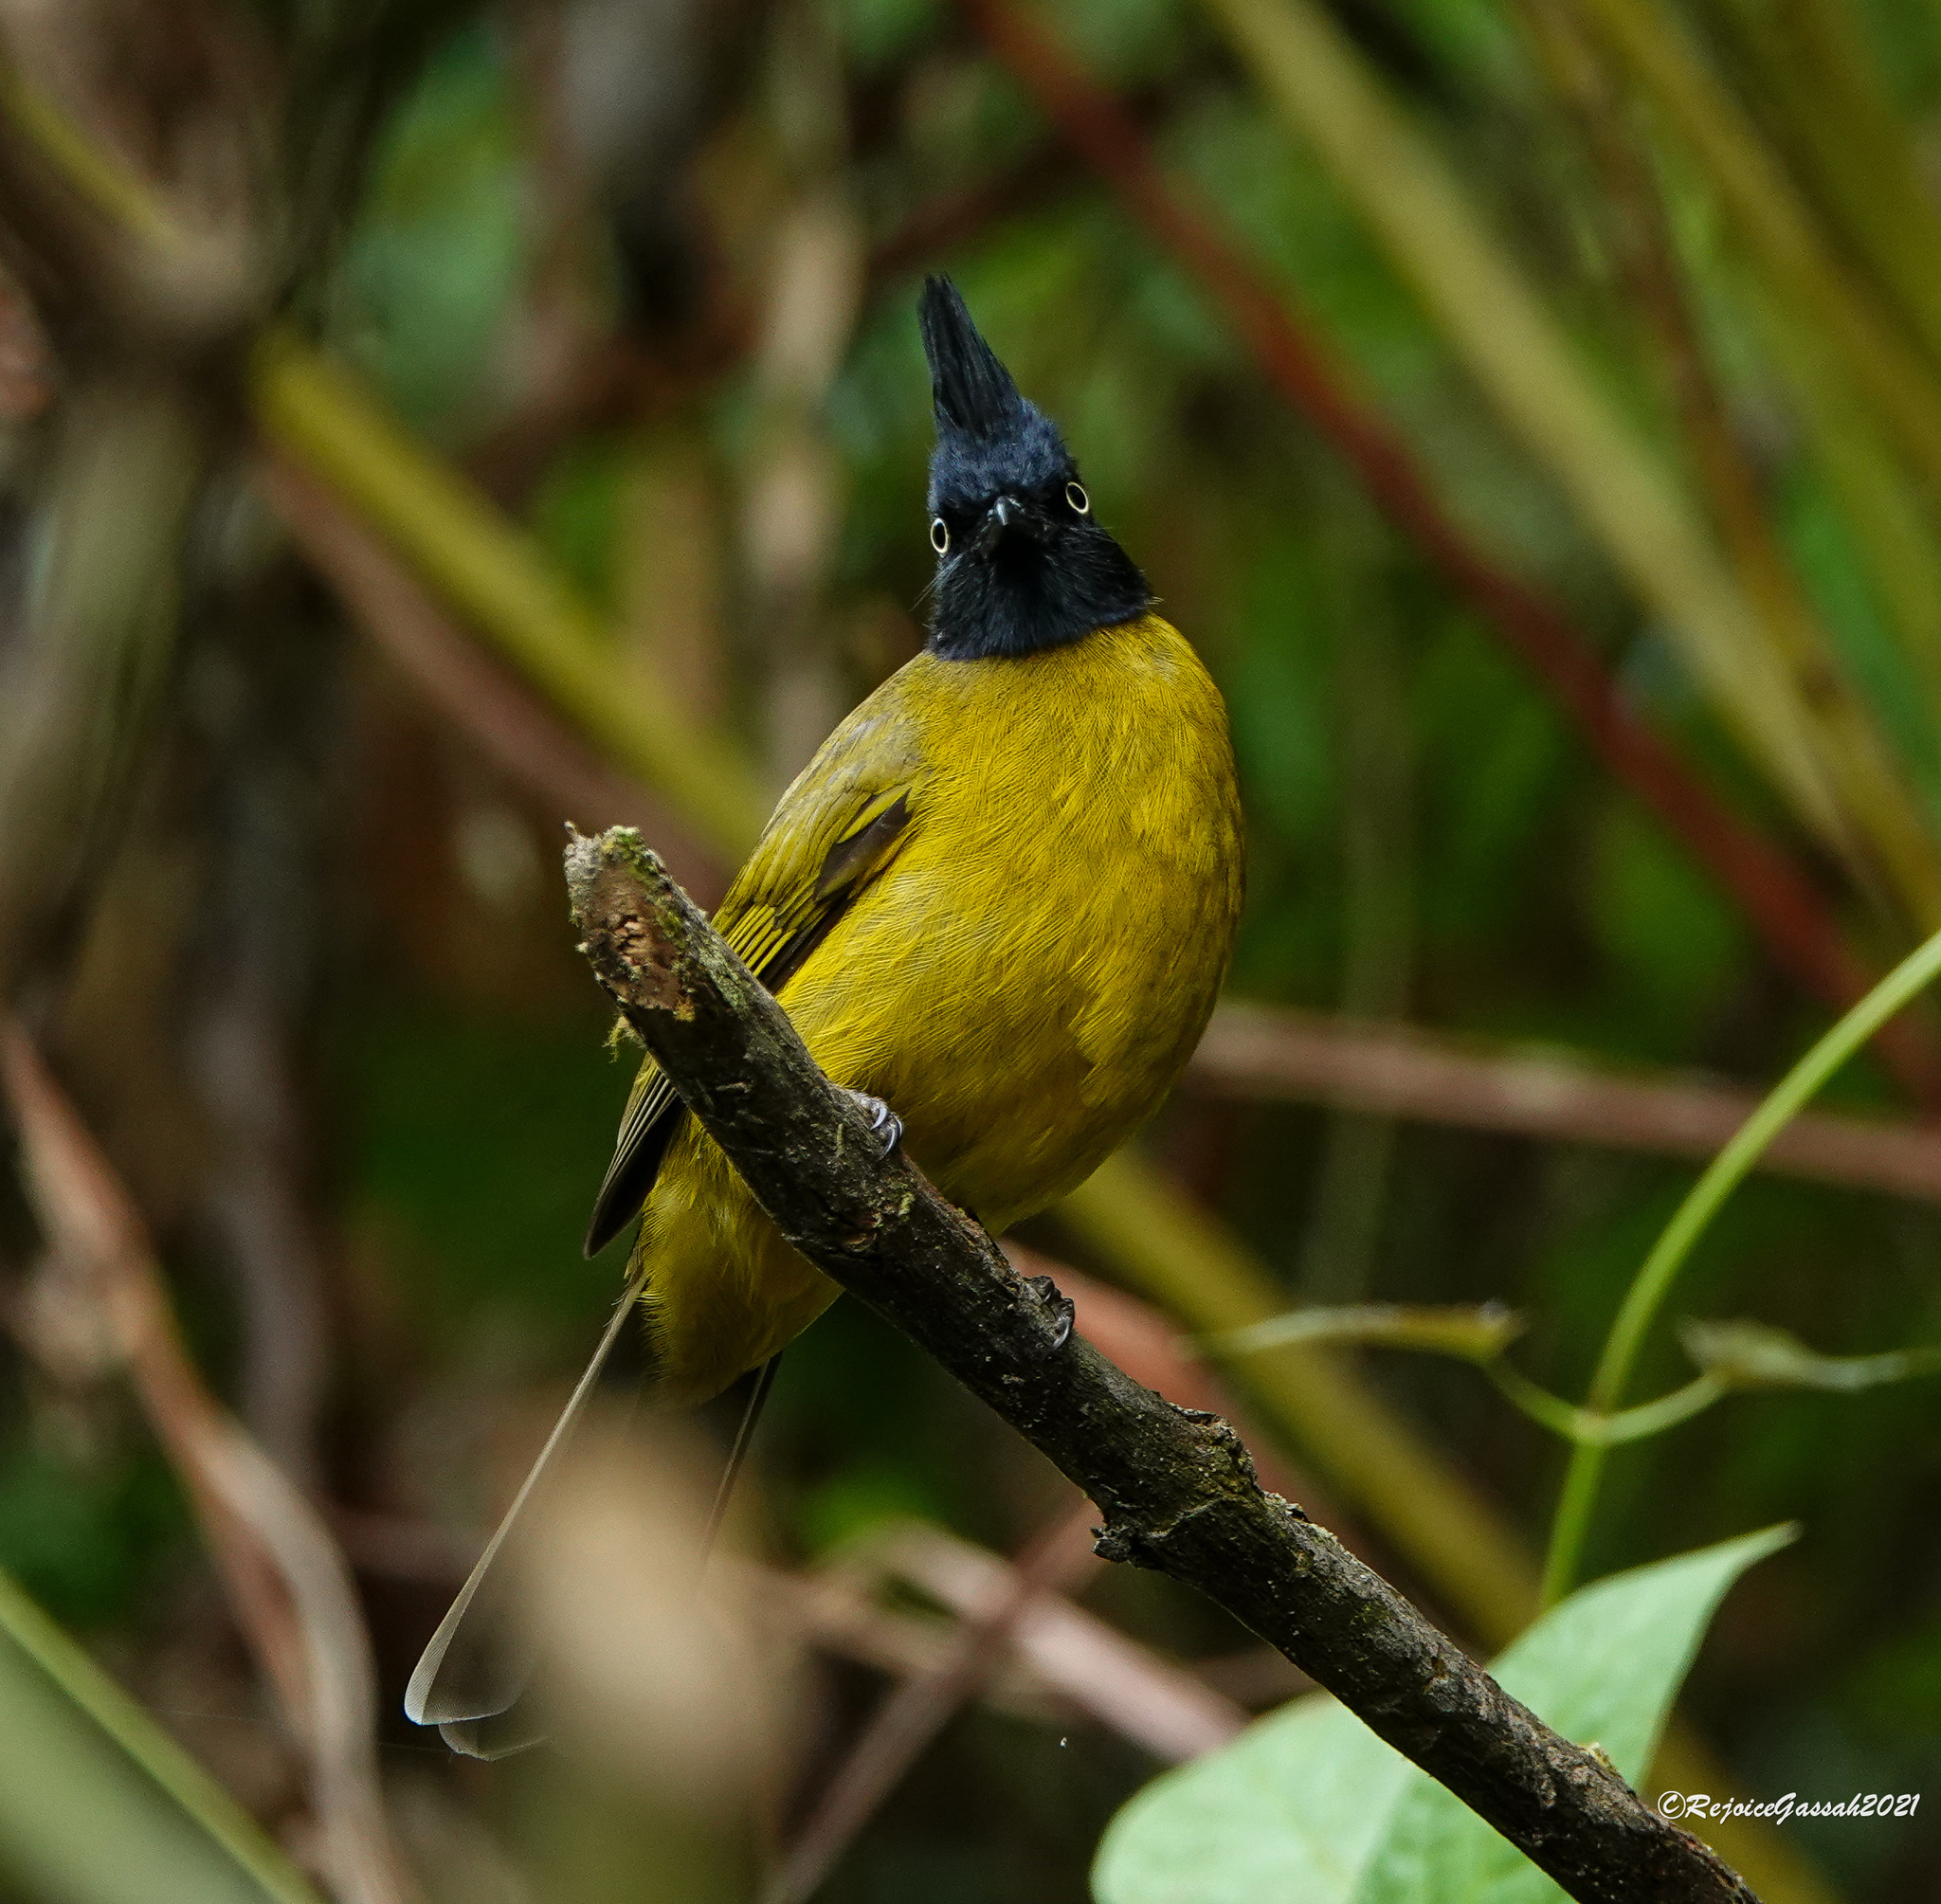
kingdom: Animalia
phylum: Chordata
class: Aves
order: Passeriformes
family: Pycnonotidae
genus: Pycnonotus
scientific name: Pycnonotus flaviventris
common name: Black-crested bulbul
